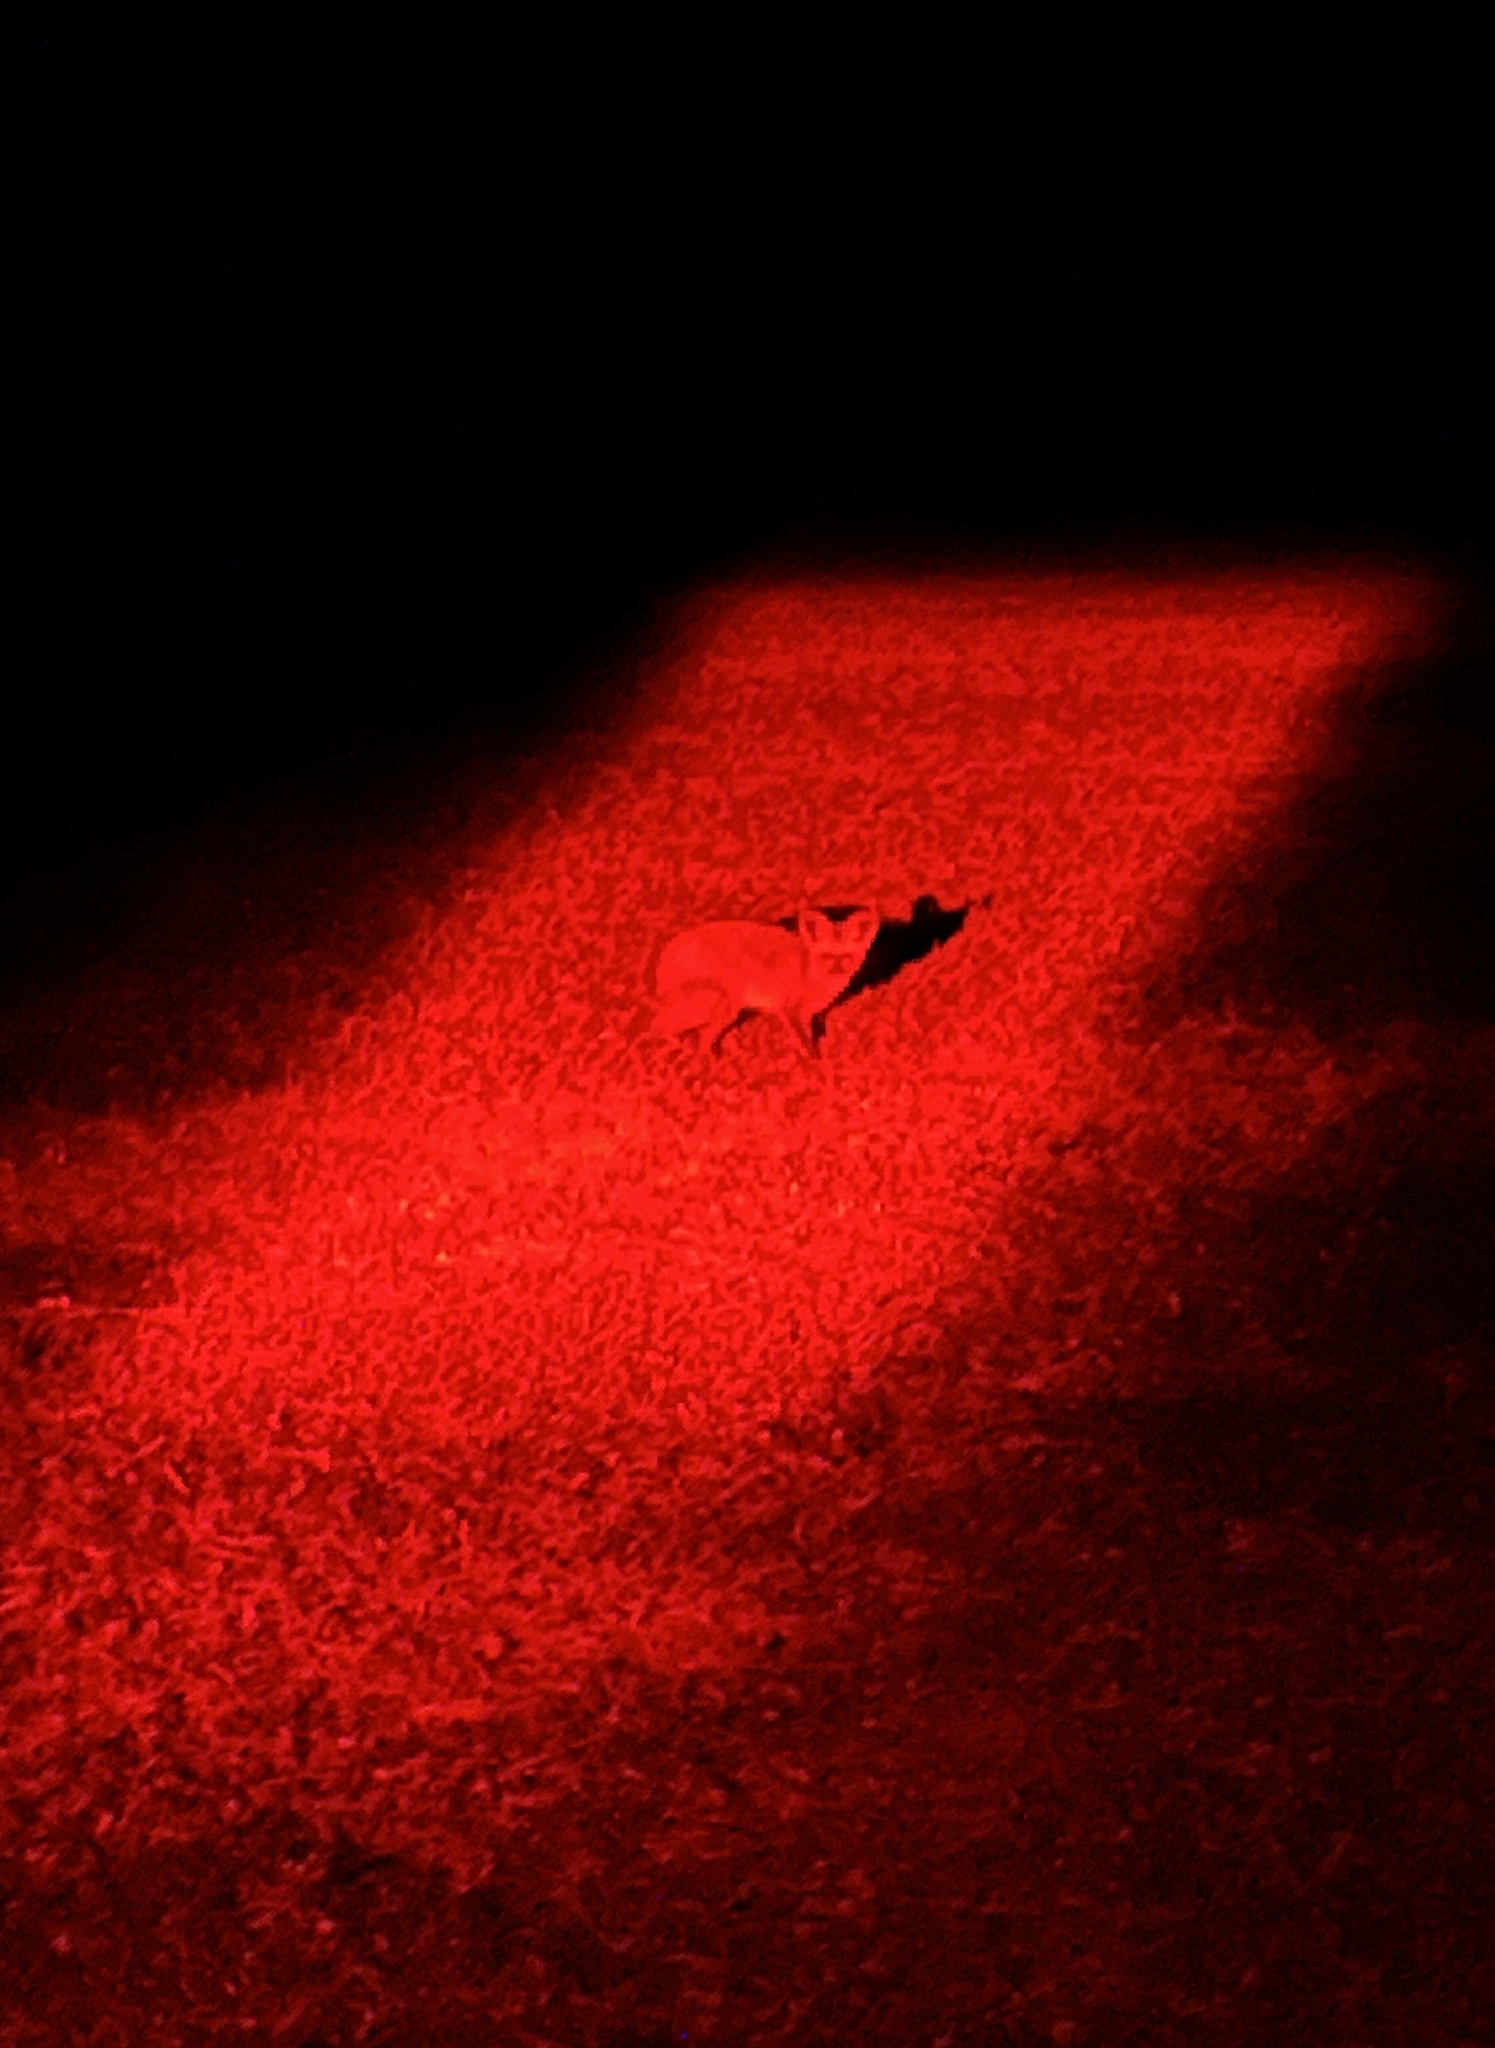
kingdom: Animalia
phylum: Chordata
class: Mammalia
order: Carnivora
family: Canidae
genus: Otocyon
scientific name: Otocyon megalotis
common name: Bat-eared fox
